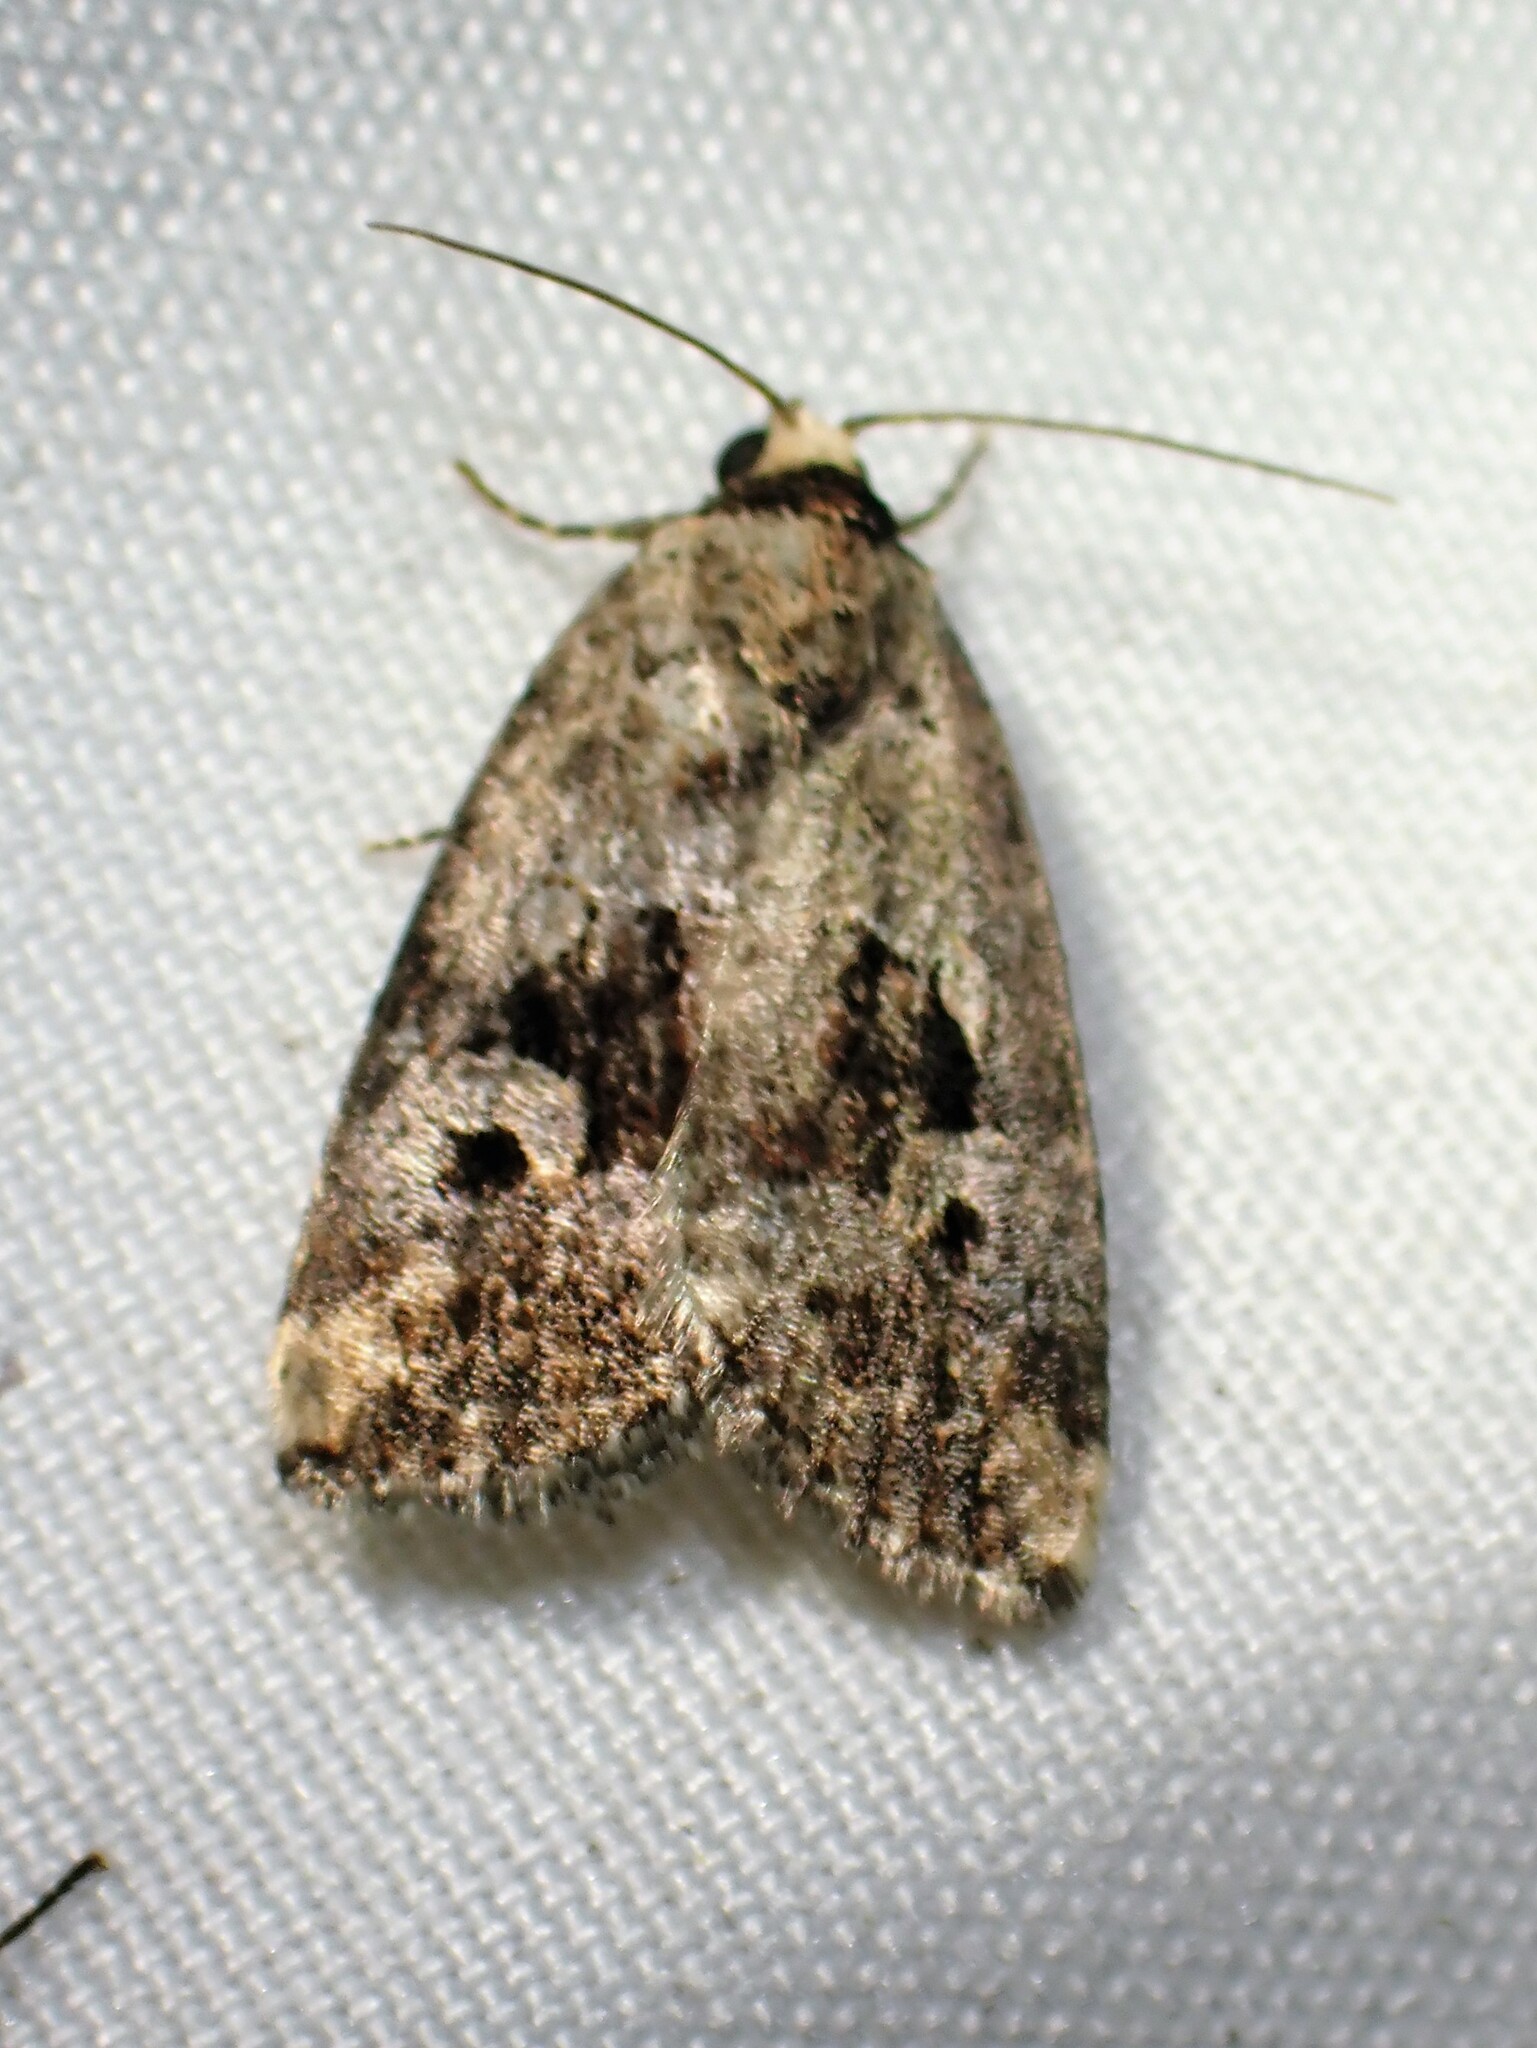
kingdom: Animalia
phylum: Arthropoda
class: Insecta
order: Lepidoptera
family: Noctuidae
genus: Elaphria
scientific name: Elaphria alapallida
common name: Pale-winged midget
